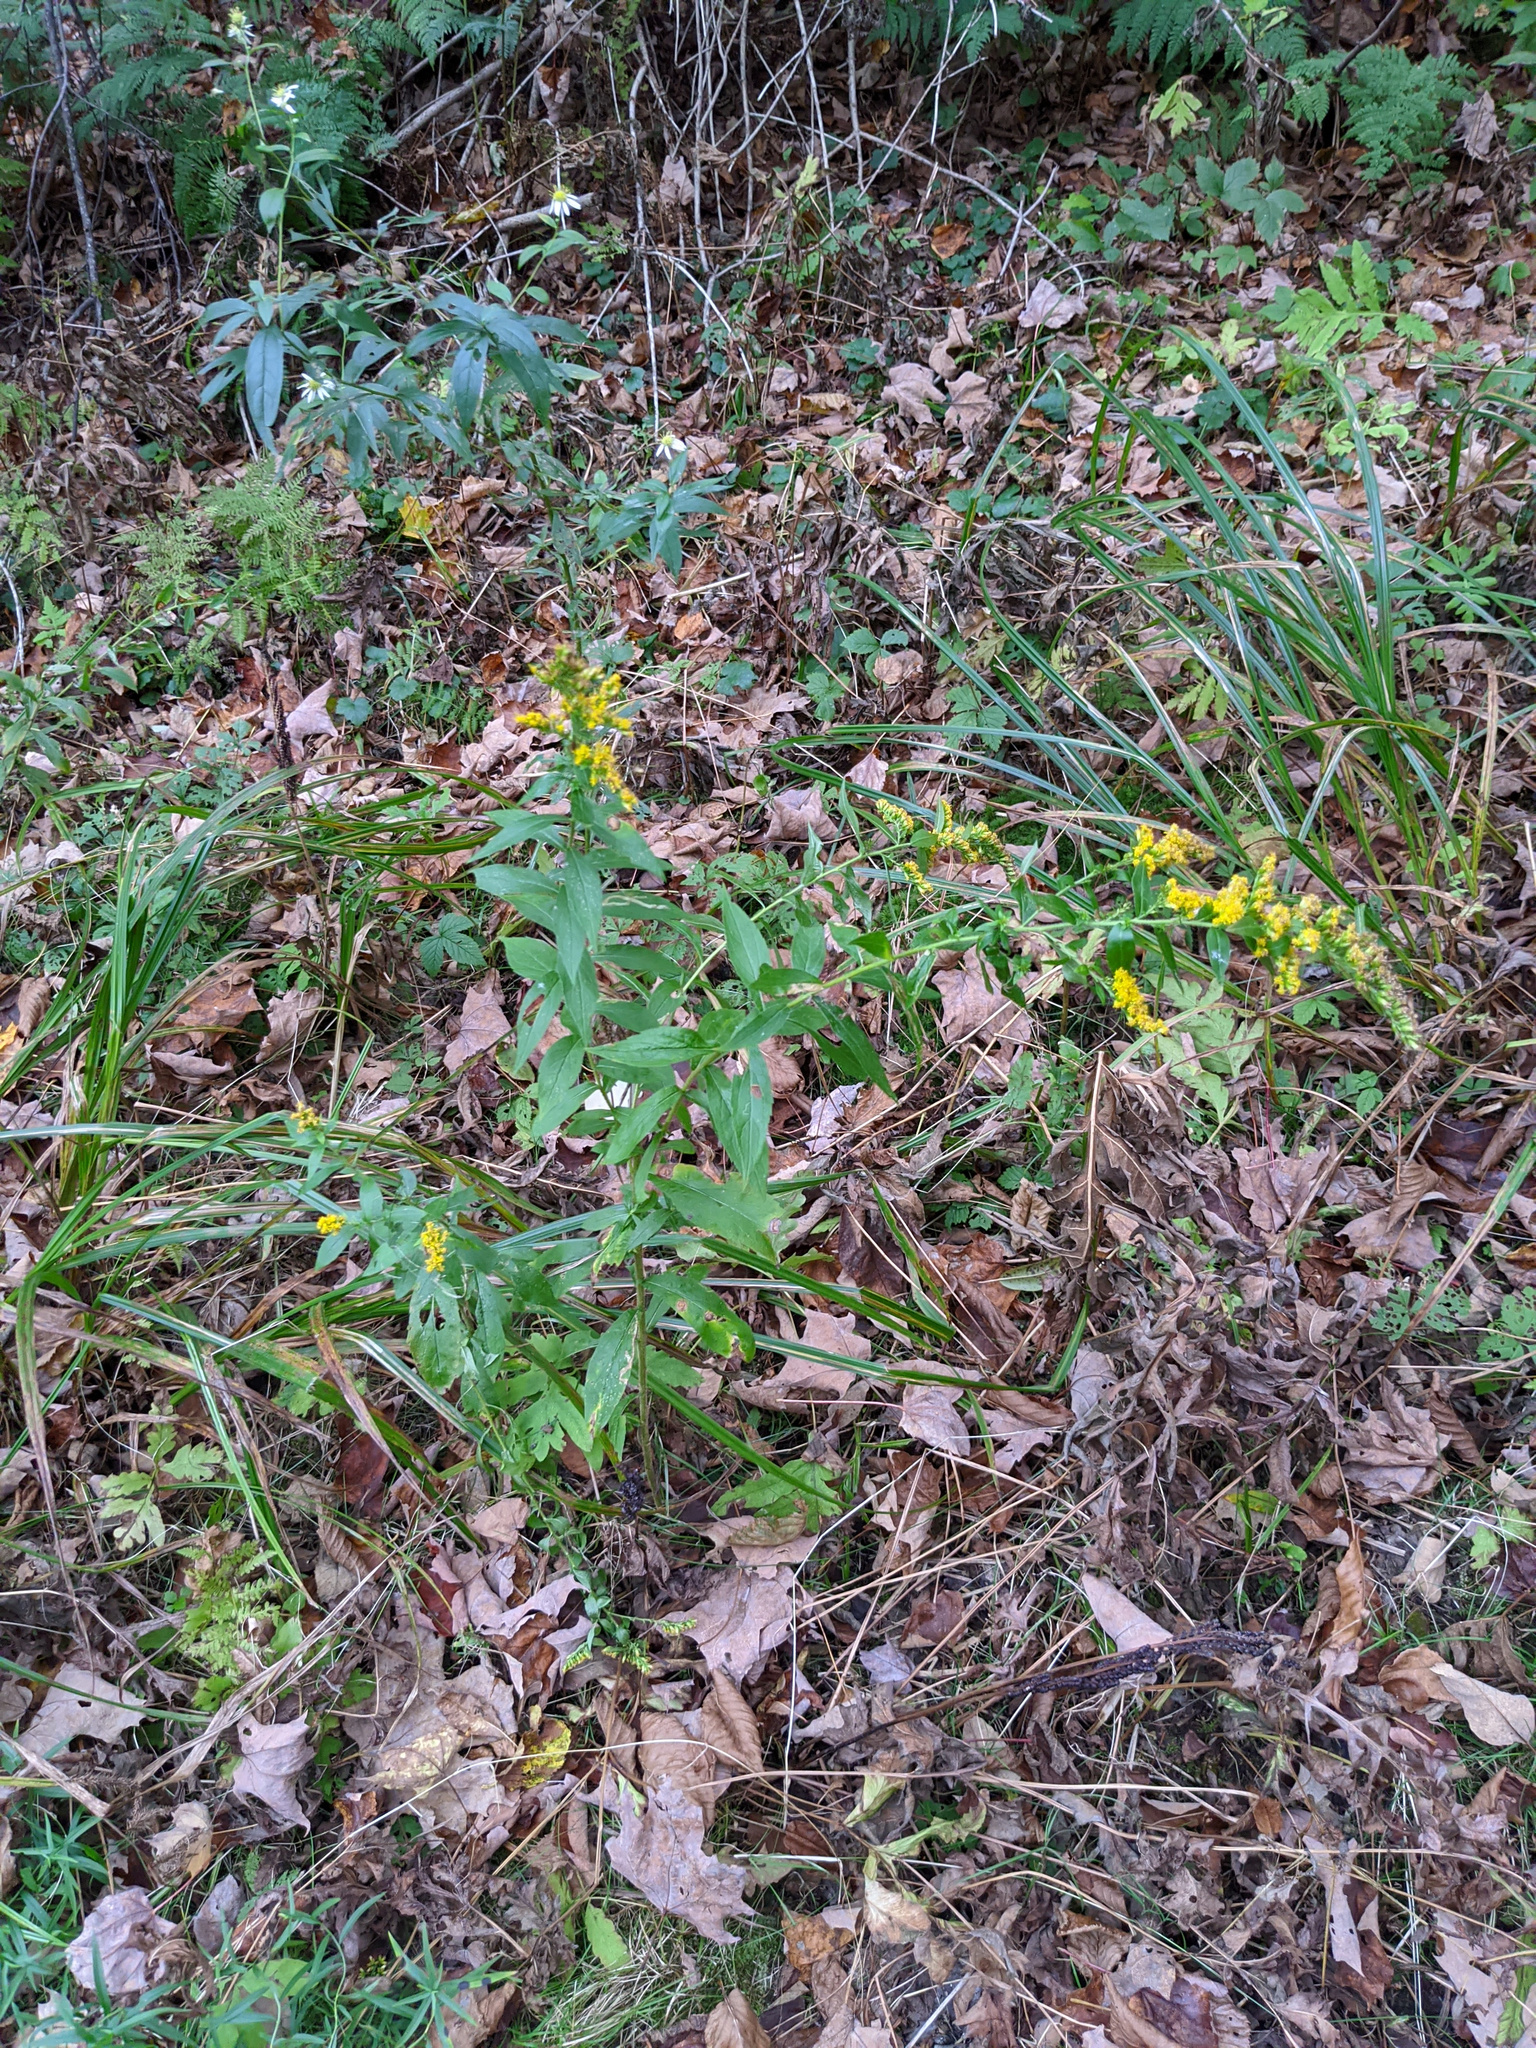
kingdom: Plantae
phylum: Tracheophyta
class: Magnoliopsida
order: Asterales
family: Asteraceae
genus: Solidago
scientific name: Solidago rugosa
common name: Rough-stemmed goldenrod
